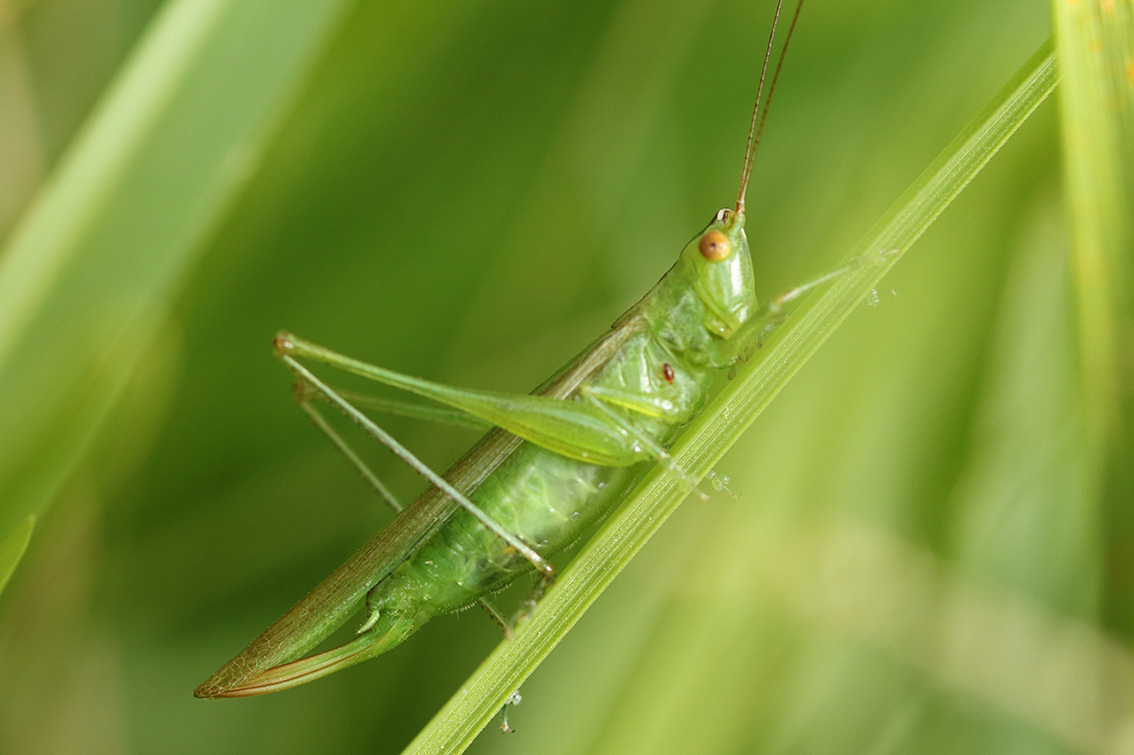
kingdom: Animalia
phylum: Arthropoda
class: Insecta
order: Orthoptera
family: Tettigoniidae
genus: Conocephalus
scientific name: Conocephalus longipes
